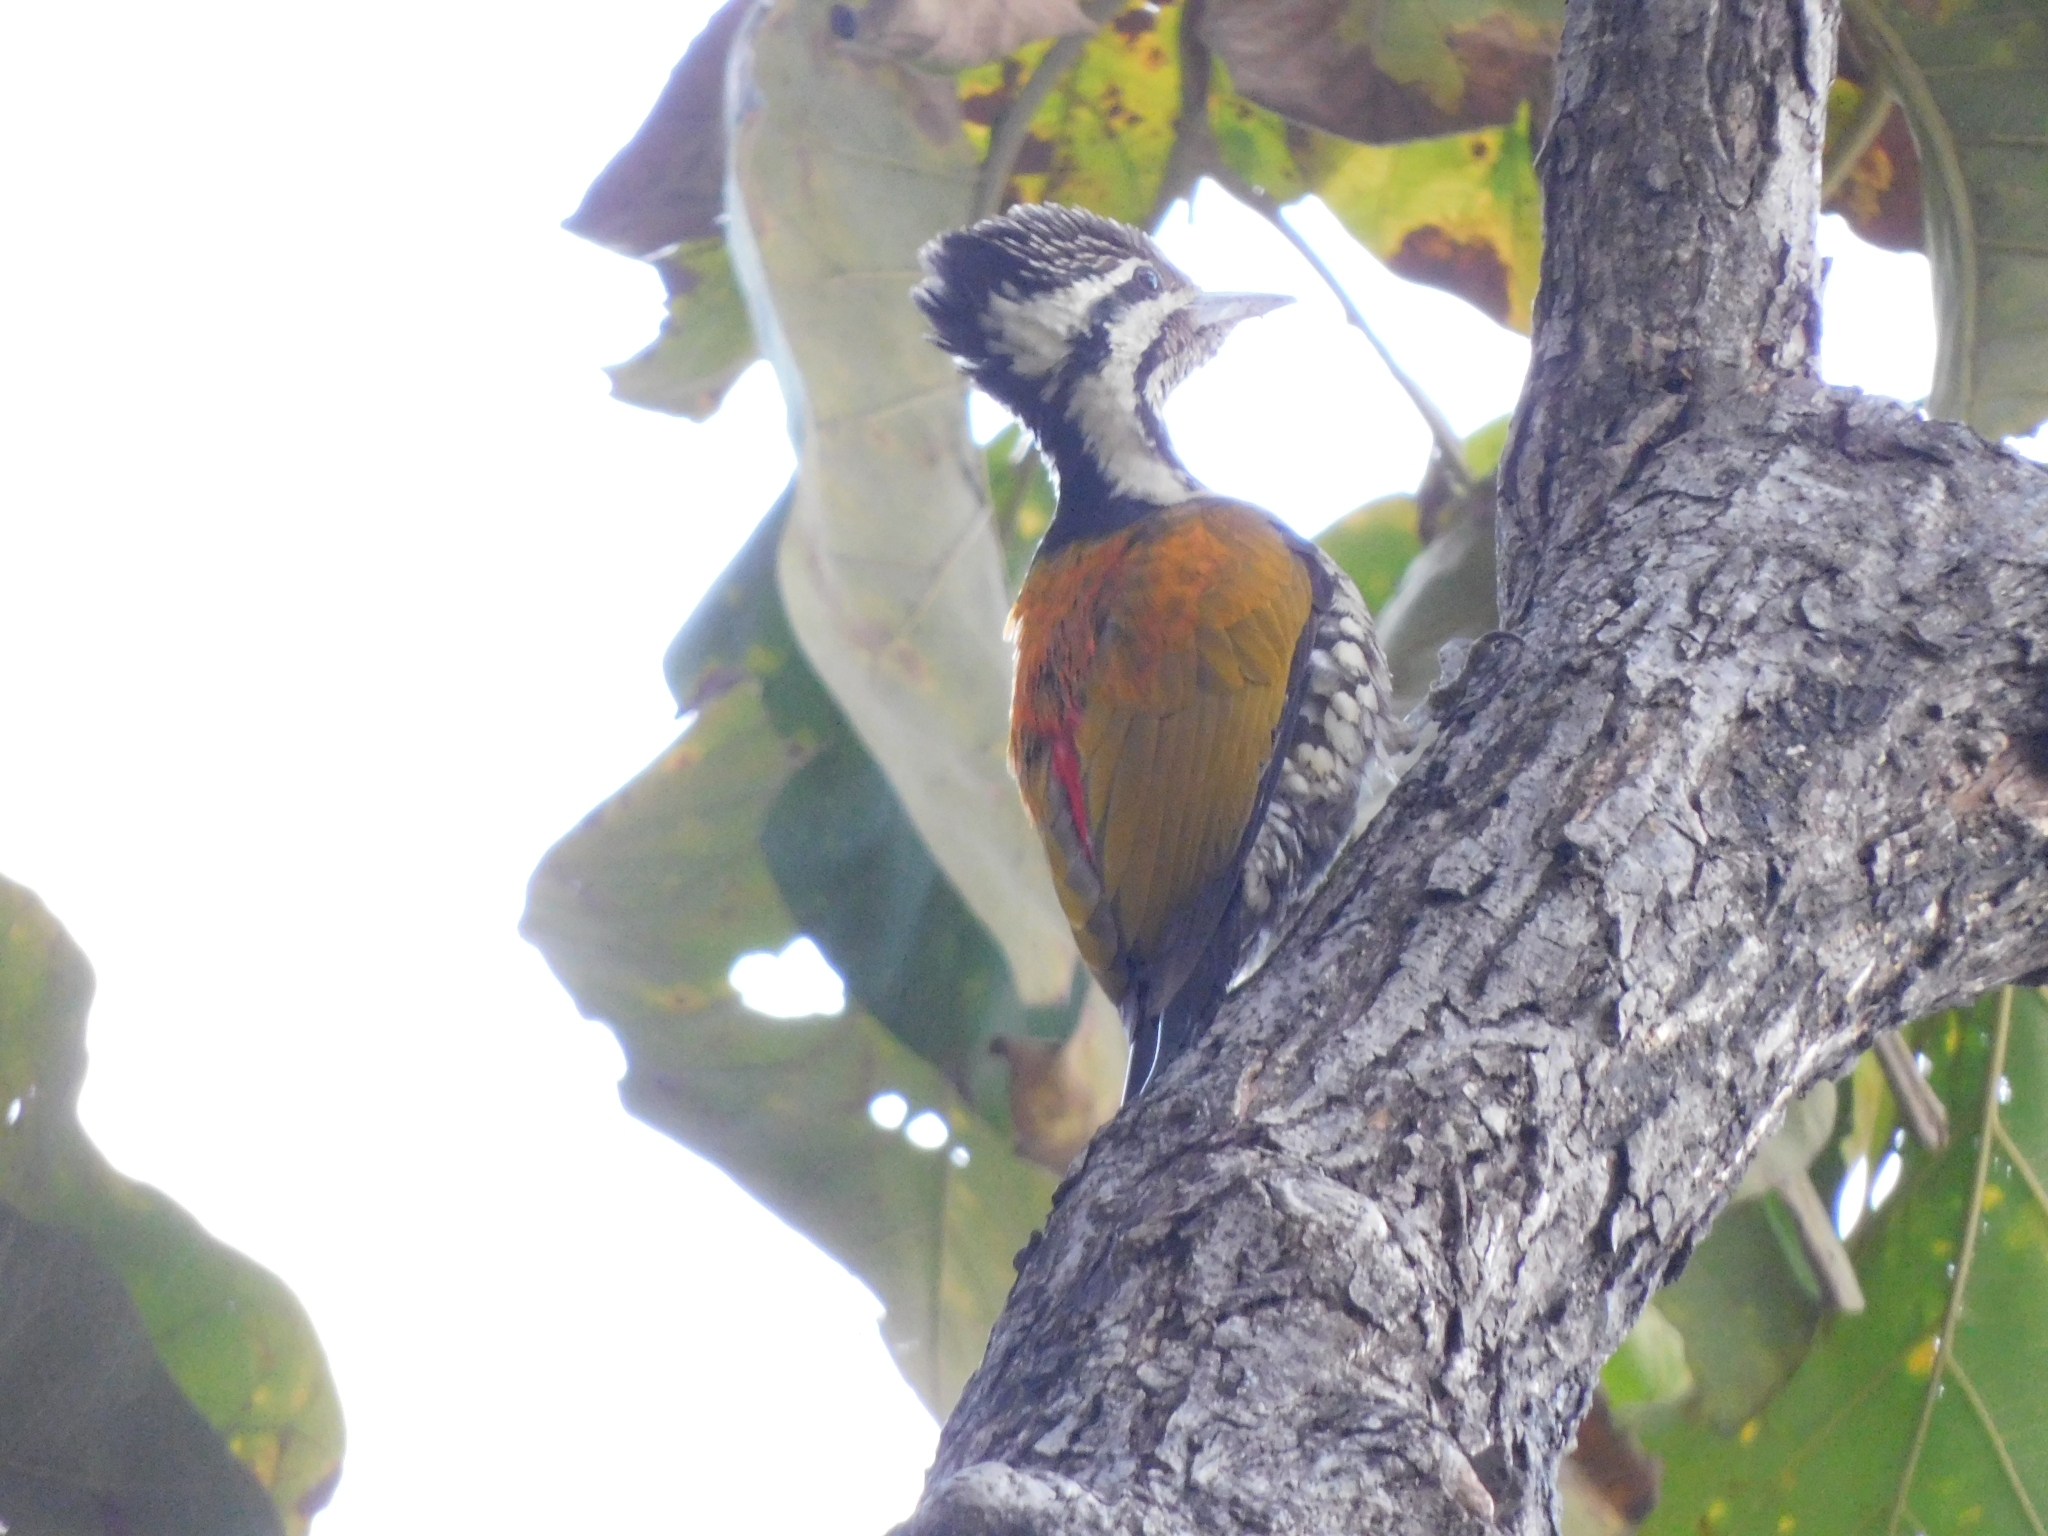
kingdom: Animalia
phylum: Chordata
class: Aves
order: Piciformes
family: Picidae
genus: Dinopium
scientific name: Dinopium shorii
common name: Himalayan flameback
